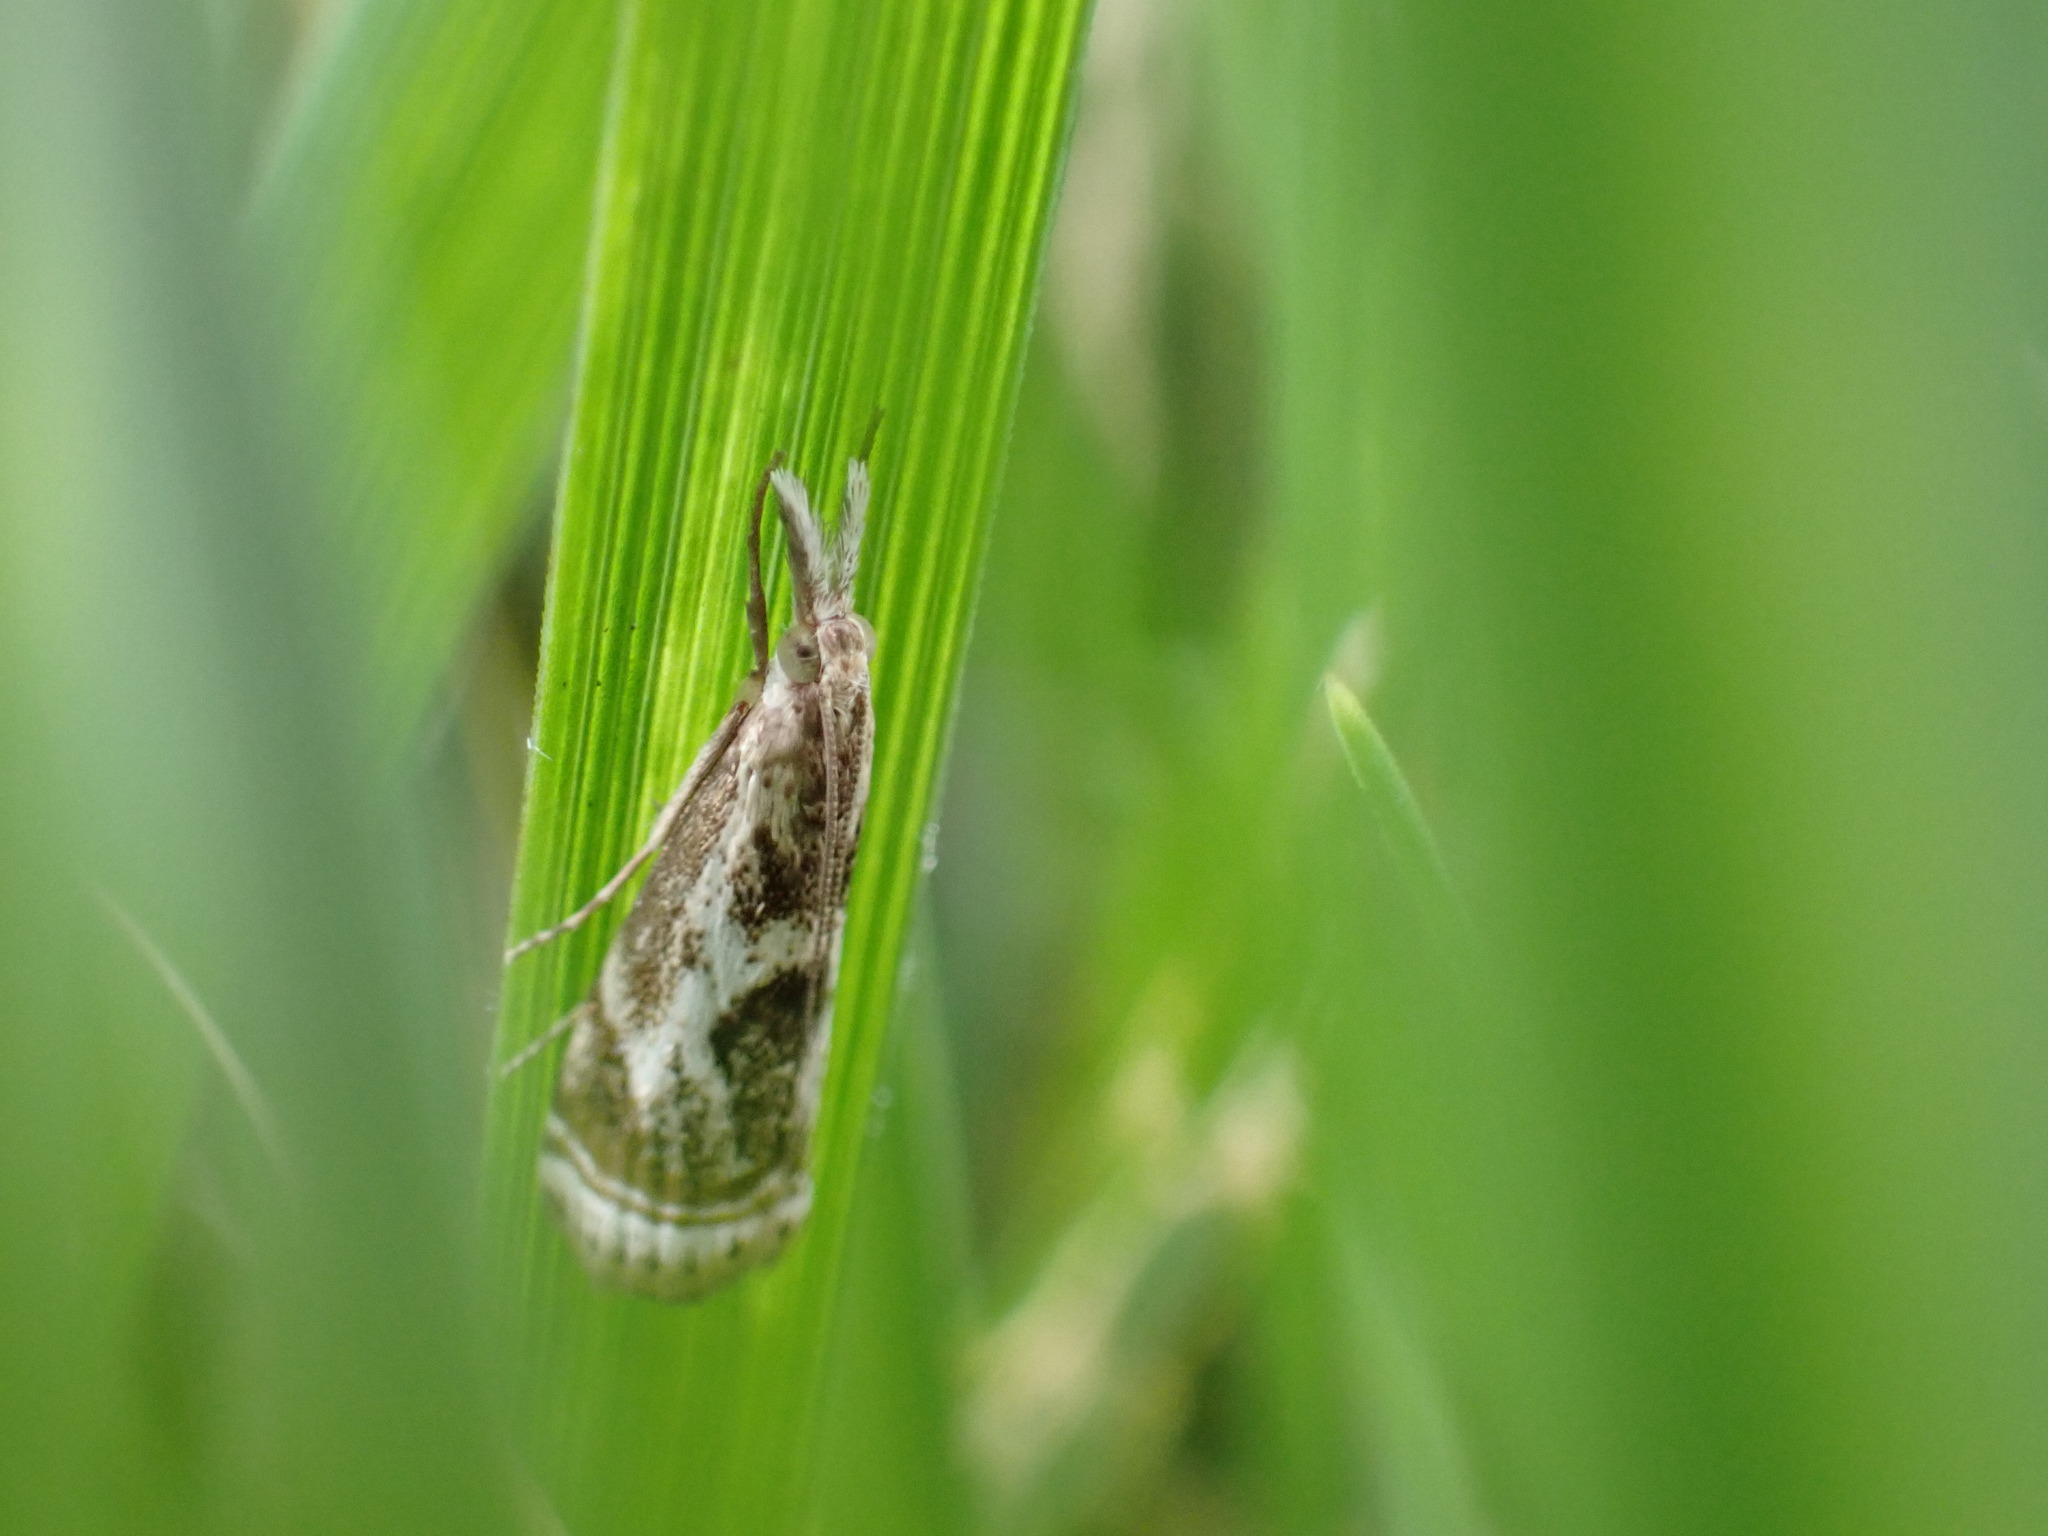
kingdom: Animalia
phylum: Arthropoda
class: Insecta
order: Lepidoptera
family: Crambidae
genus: Microcrambus
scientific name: Microcrambus elegans
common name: Elegant grass-veneer
